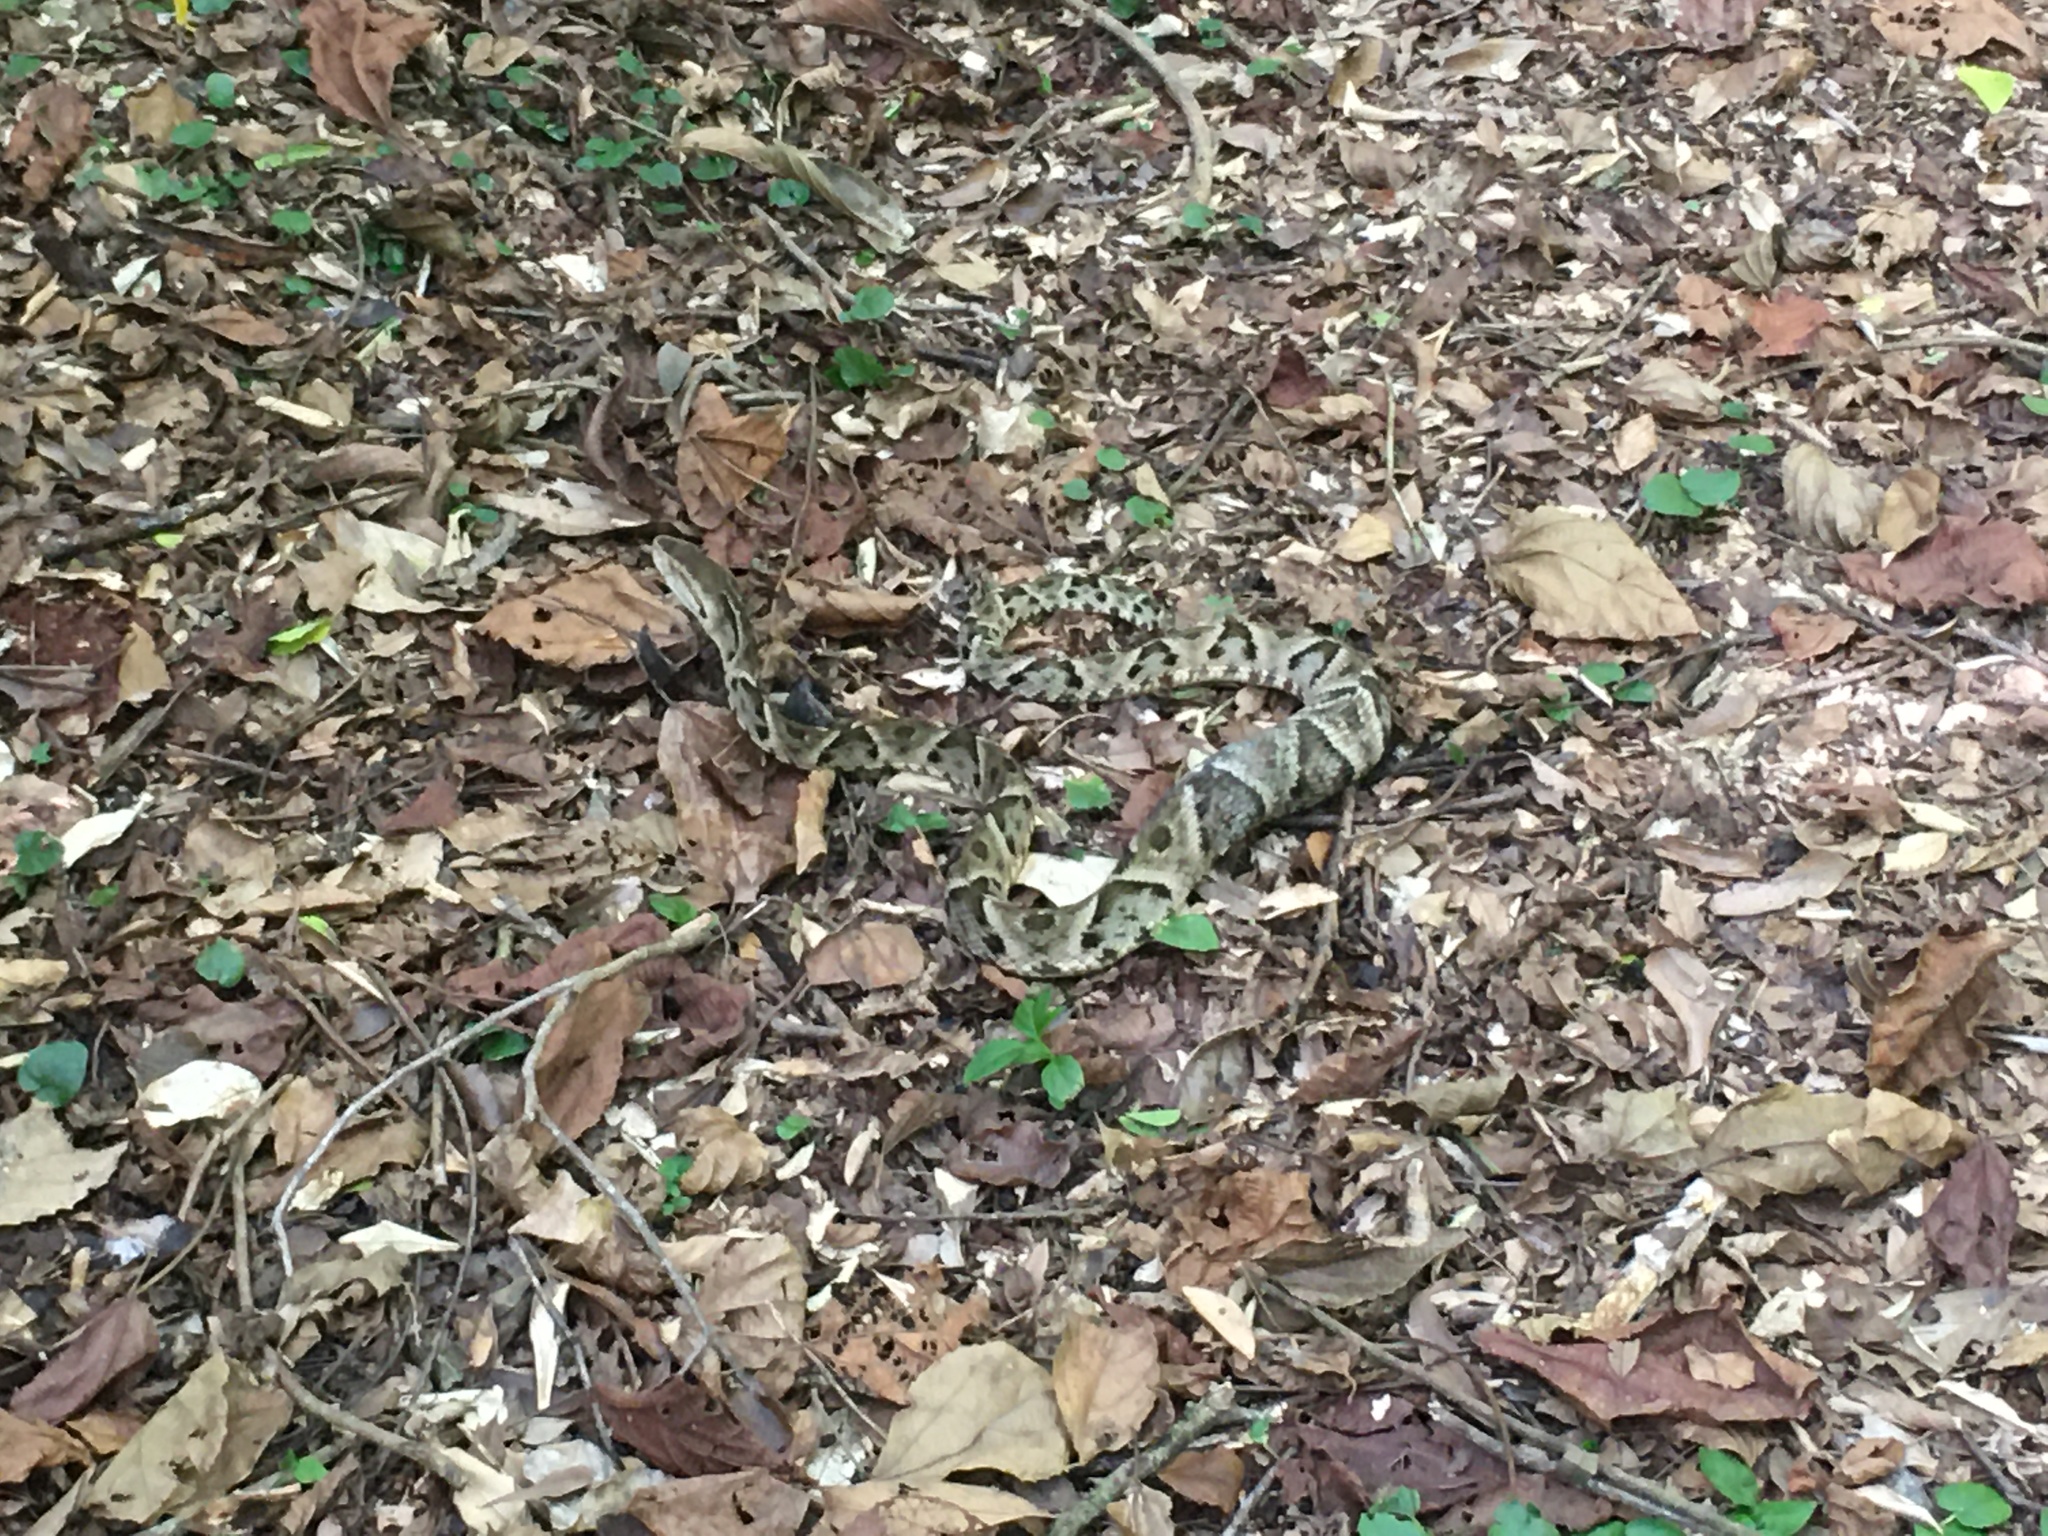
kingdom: Animalia
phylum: Chordata
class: Squamata
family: Viperidae
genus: Bothrops
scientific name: Bothrops moojeni
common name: Brazilian lancehead
